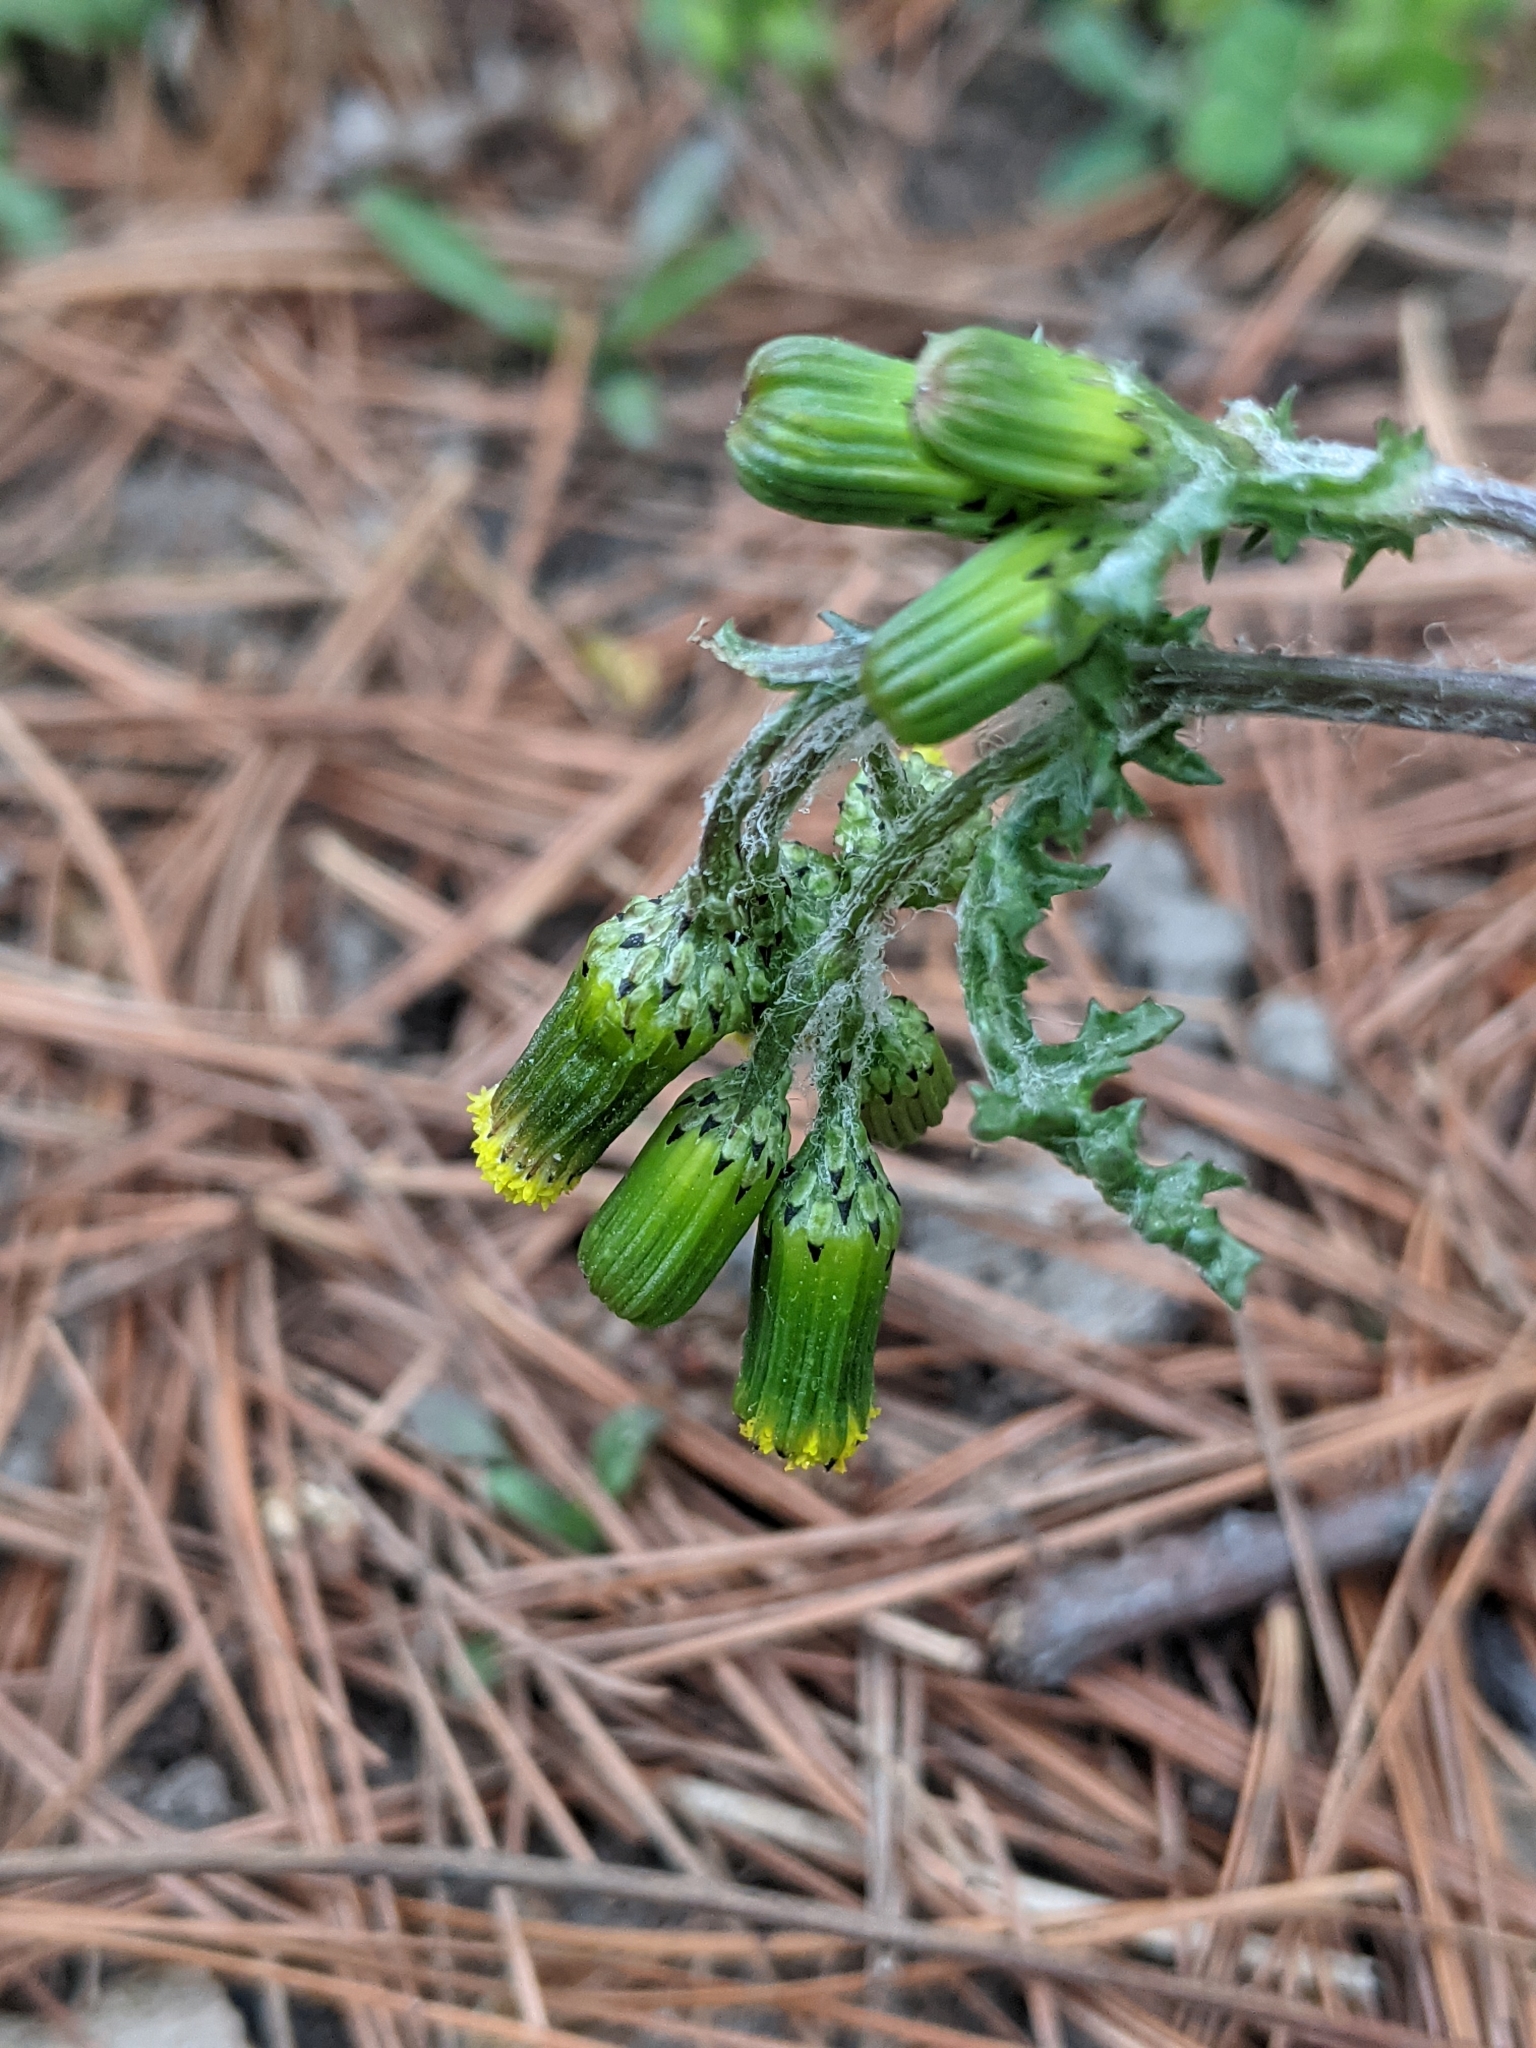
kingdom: Plantae
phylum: Tracheophyta
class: Magnoliopsida
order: Asterales
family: Asteraceae
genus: Senecio
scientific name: Senecio vulgaris
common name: Old-man-in-the-spring
